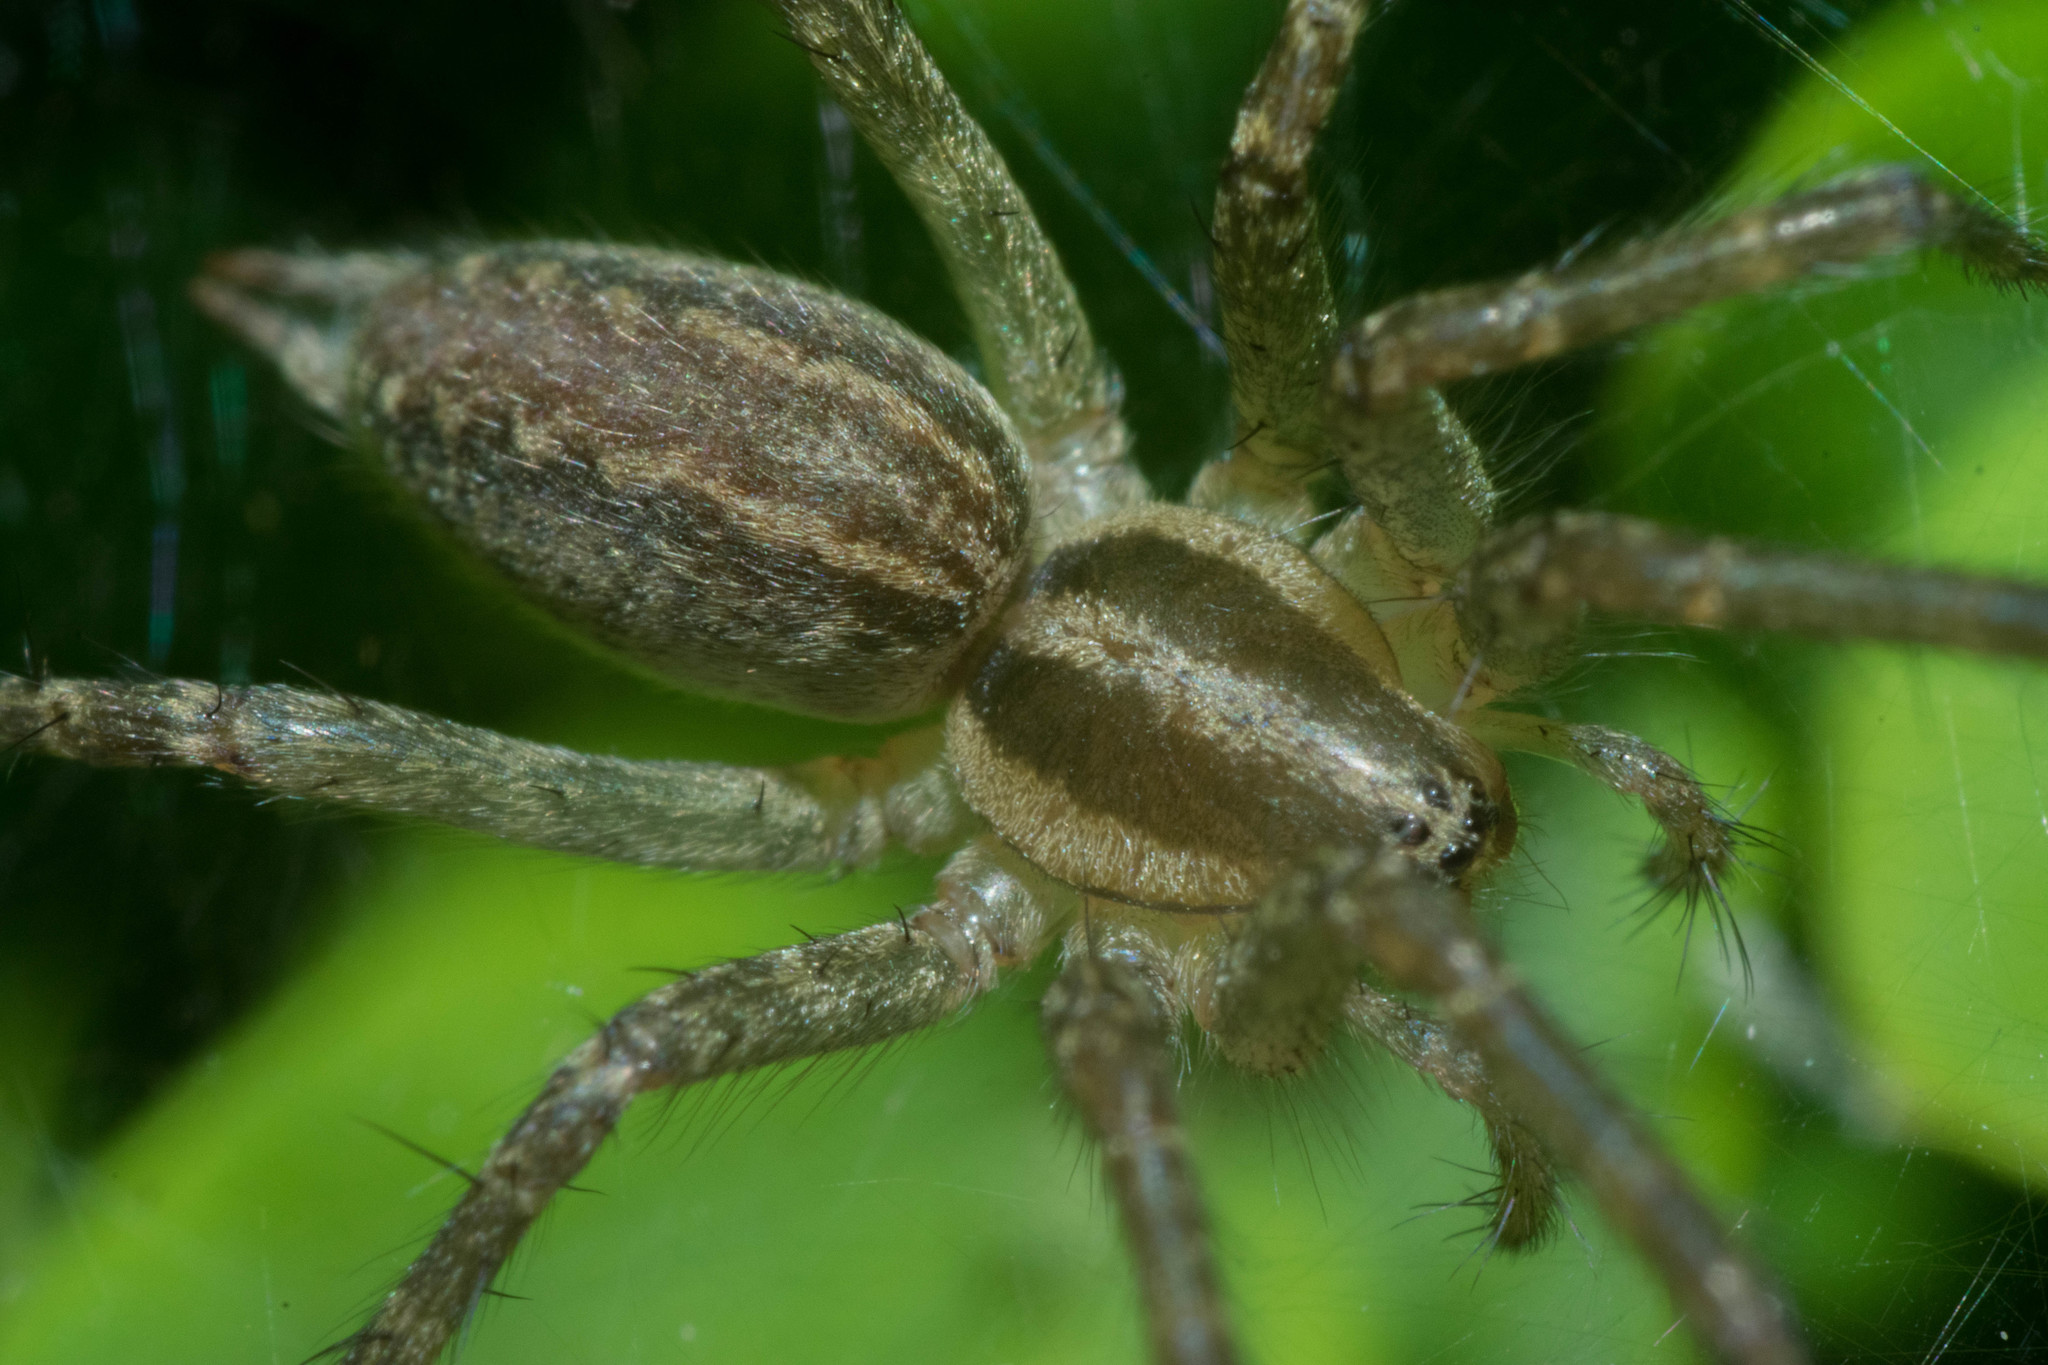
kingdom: Animalia
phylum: Arthropoda
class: Arachnida
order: Araneae
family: Agelenidae
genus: Agelenopsis
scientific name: Agelenopsis
